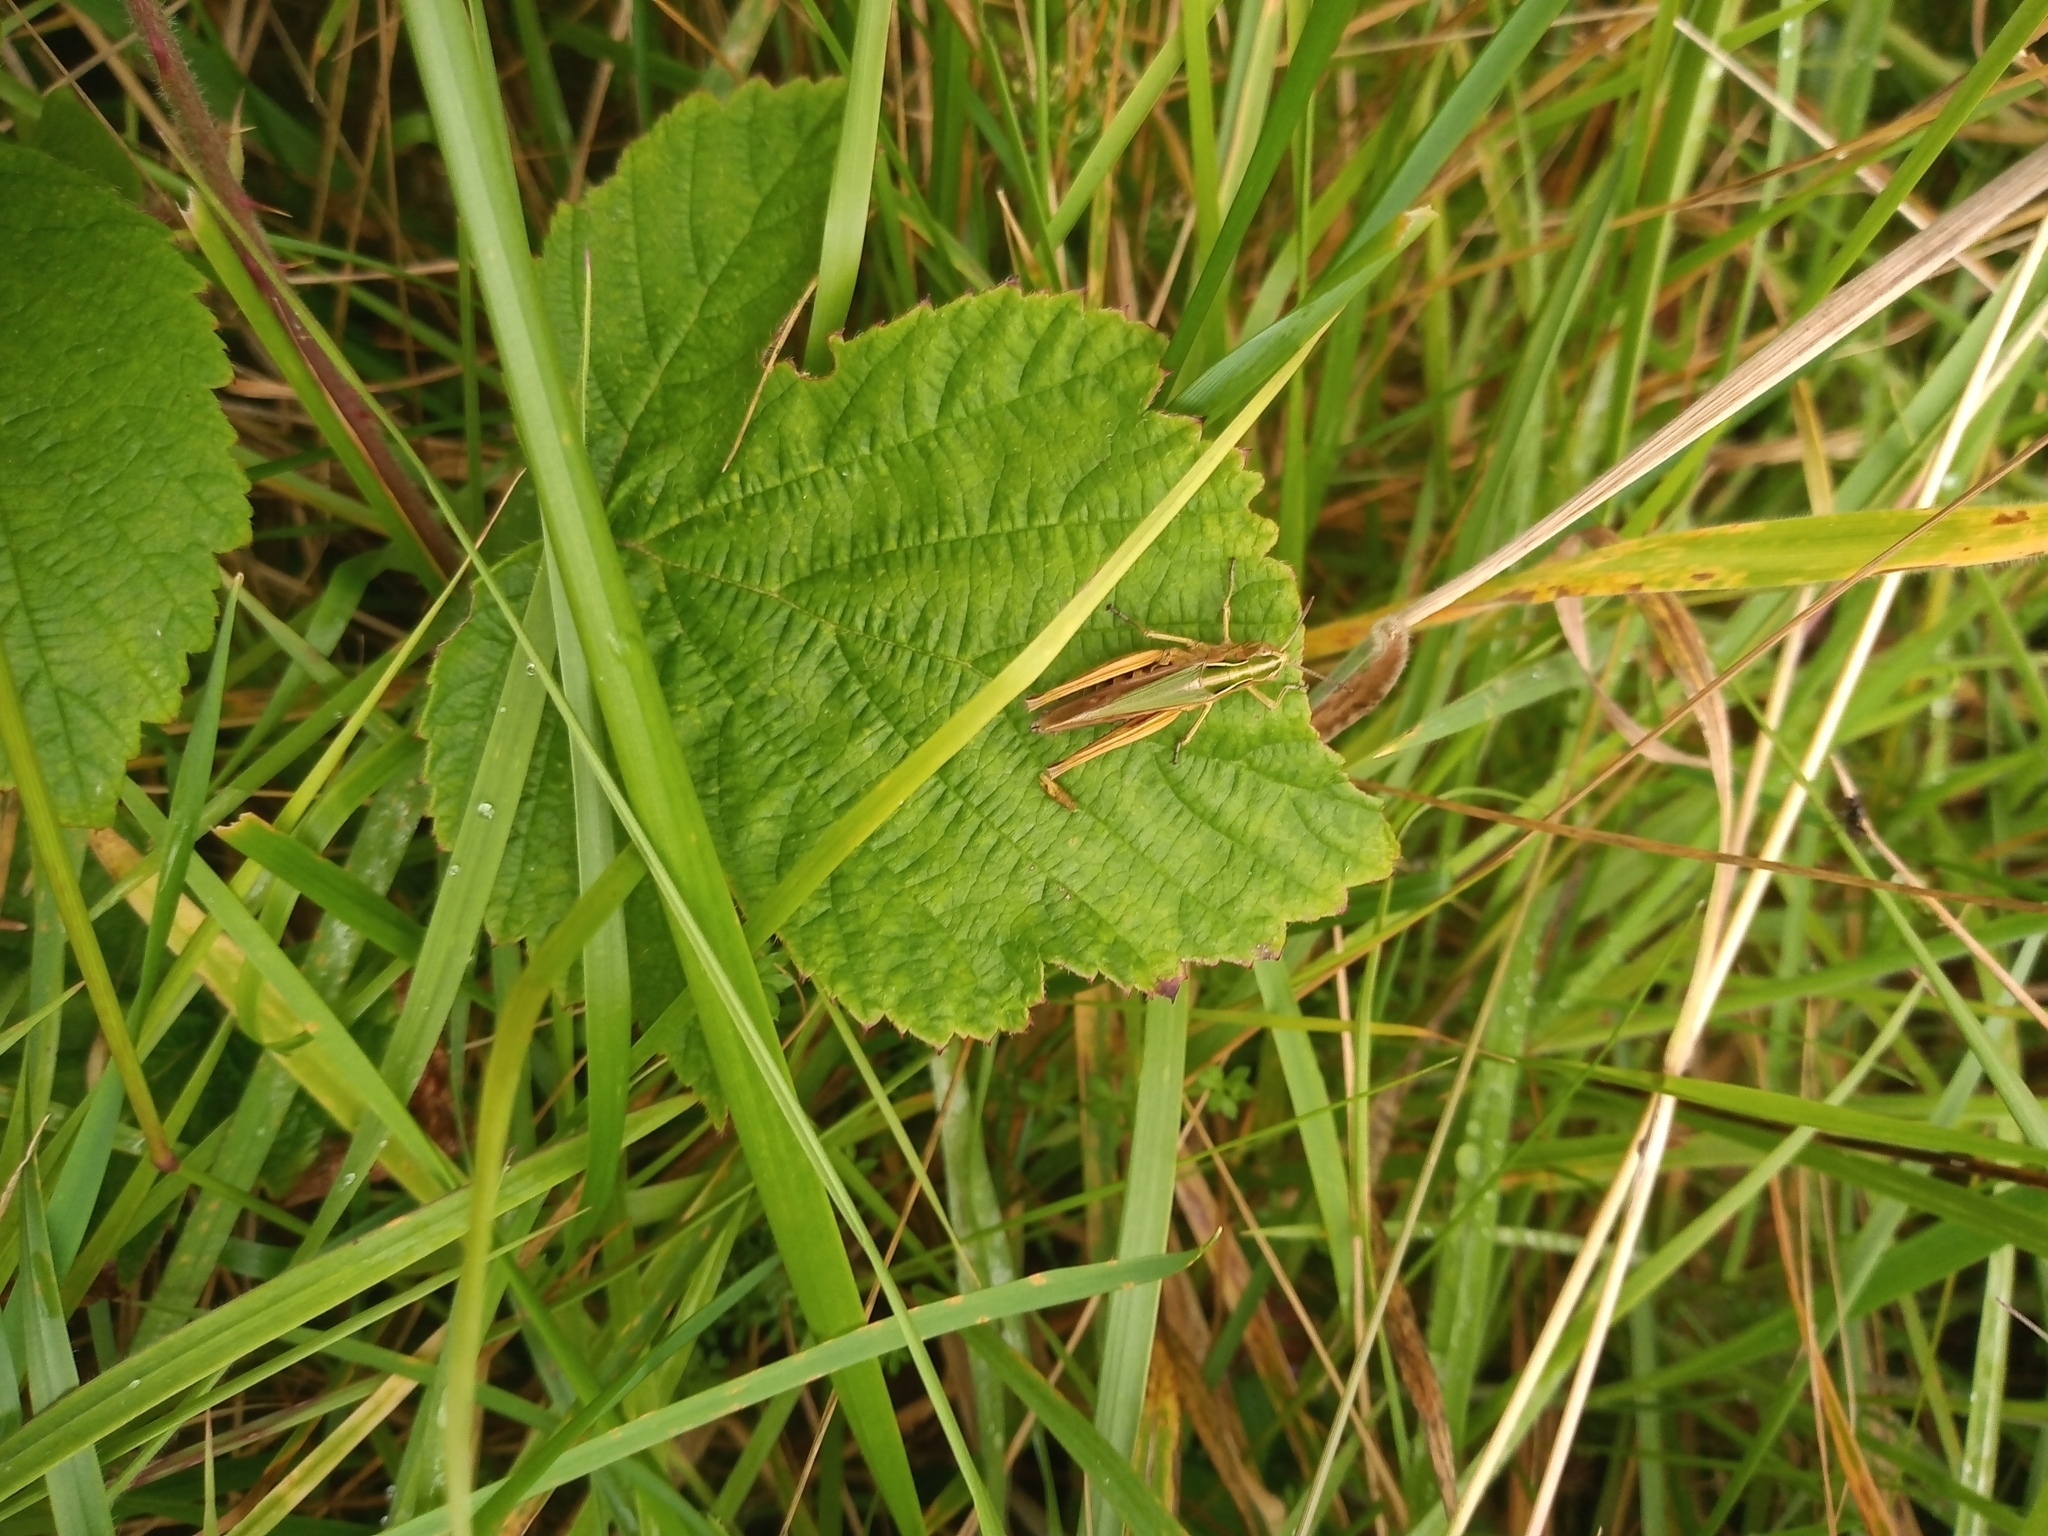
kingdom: Animalia
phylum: Arthropoda
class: Insecta
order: Orthoptera
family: Acrididae
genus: Omocestus
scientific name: Omocestus viridulus
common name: Common green grasshopper
